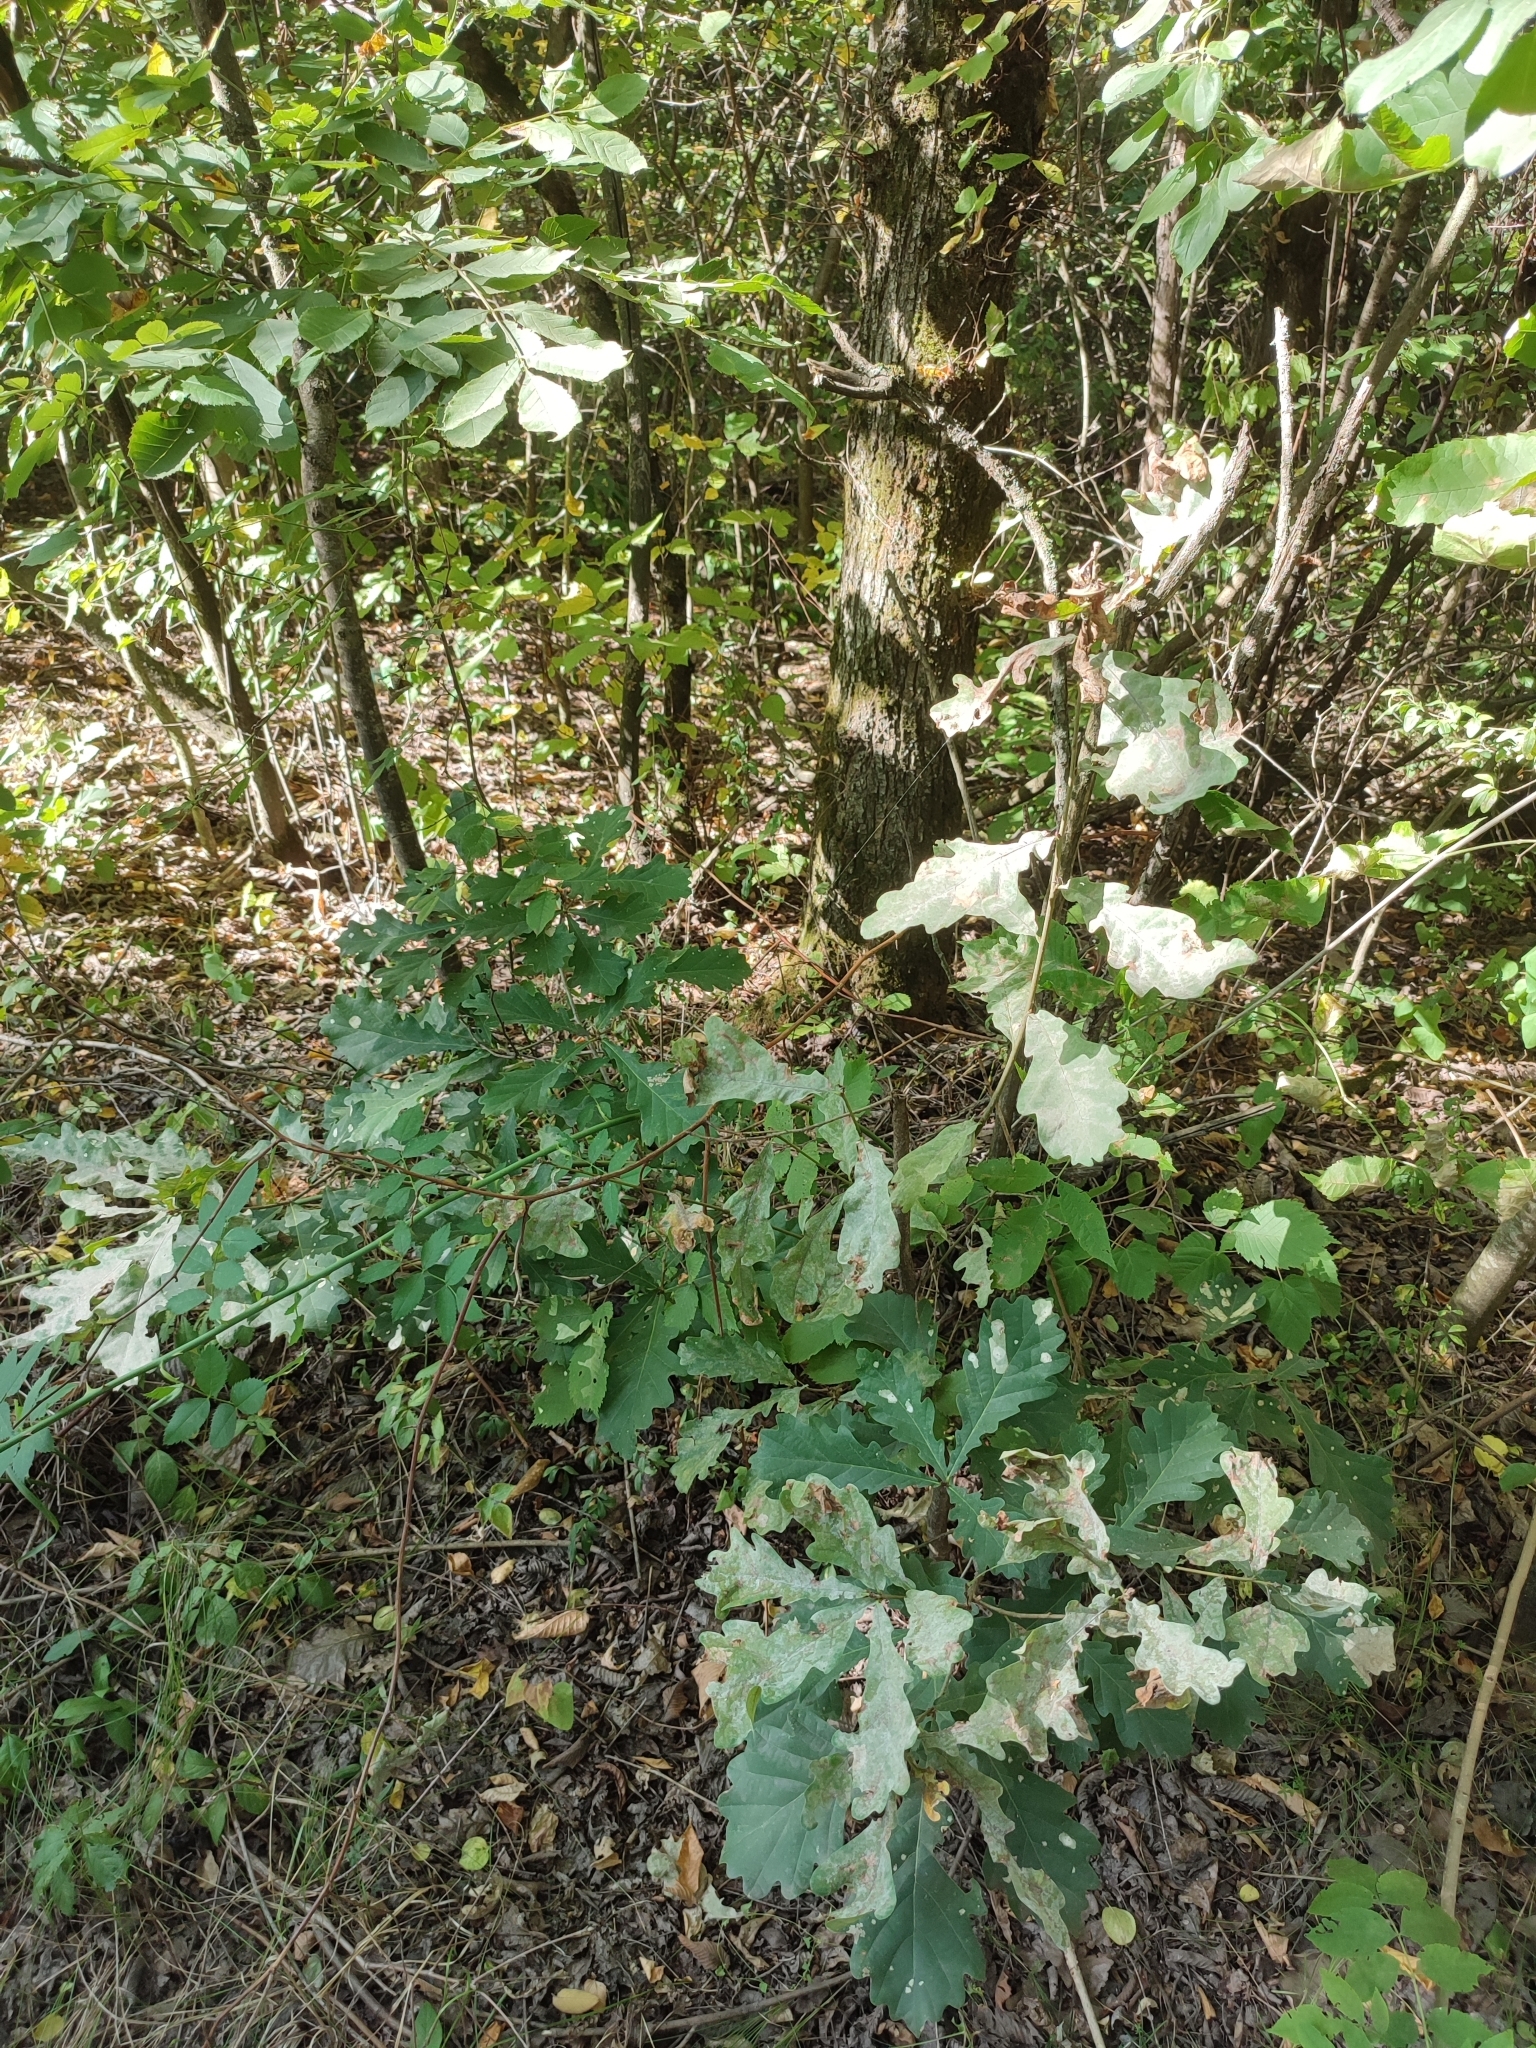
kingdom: Plantae
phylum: Tracheophyta
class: Magnoliopsida
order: Fagales
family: Fagaceae
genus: Quercus
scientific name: Quercus robur
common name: Pedunculate oak
